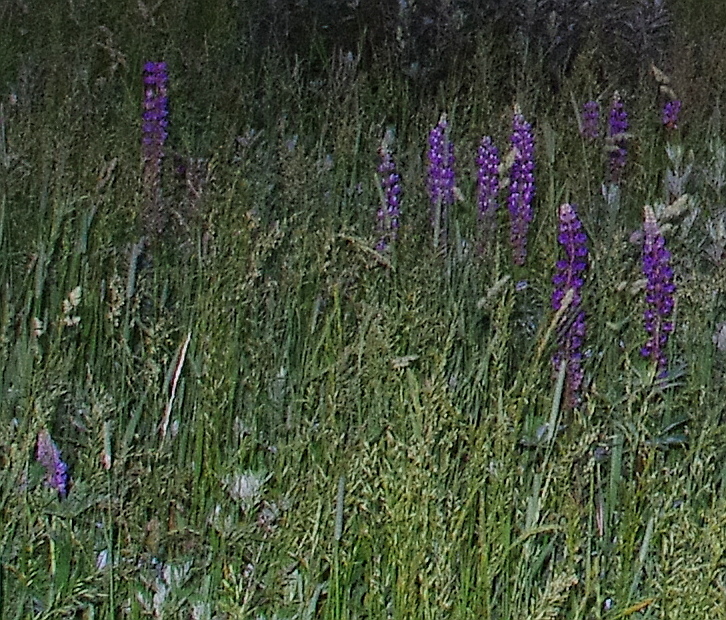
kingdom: Plantae
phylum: Tracheophyta
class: Magnoliopsida
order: Fabales
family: Fabaceae
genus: Lupinus
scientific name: Lupinus polyphyllus
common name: Garden lupin
